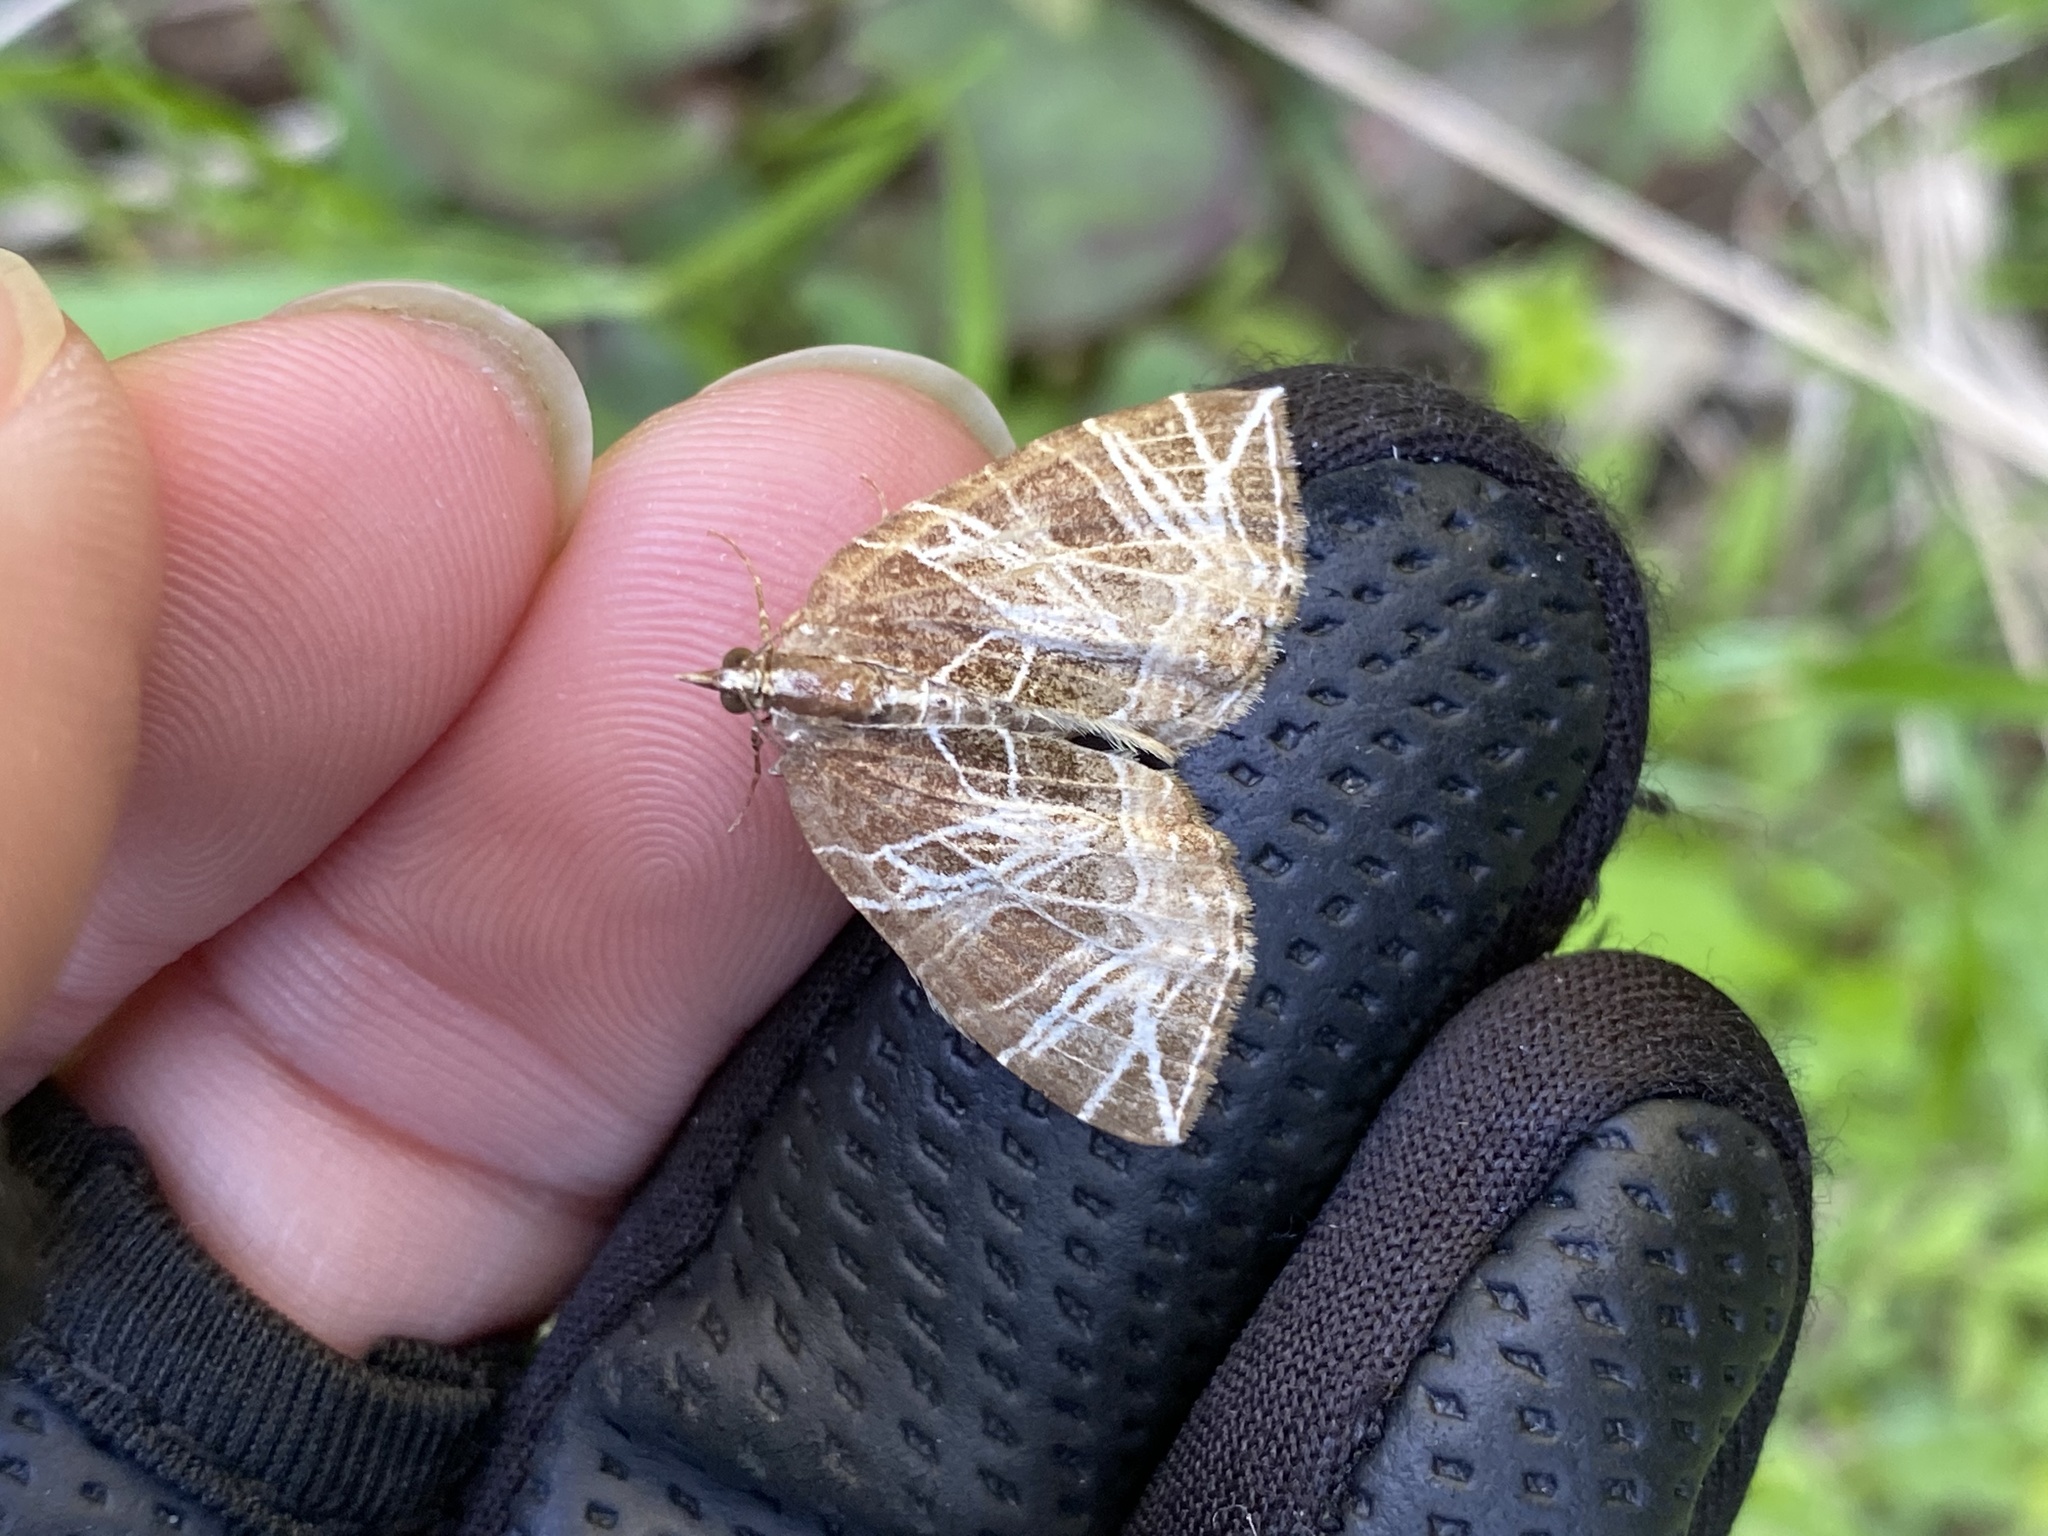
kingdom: Animalia
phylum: Arthropoda
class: Insecta
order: Lepidoptera
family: Geometridae
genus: Evecliptopera
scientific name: Evecliptopera illitata
